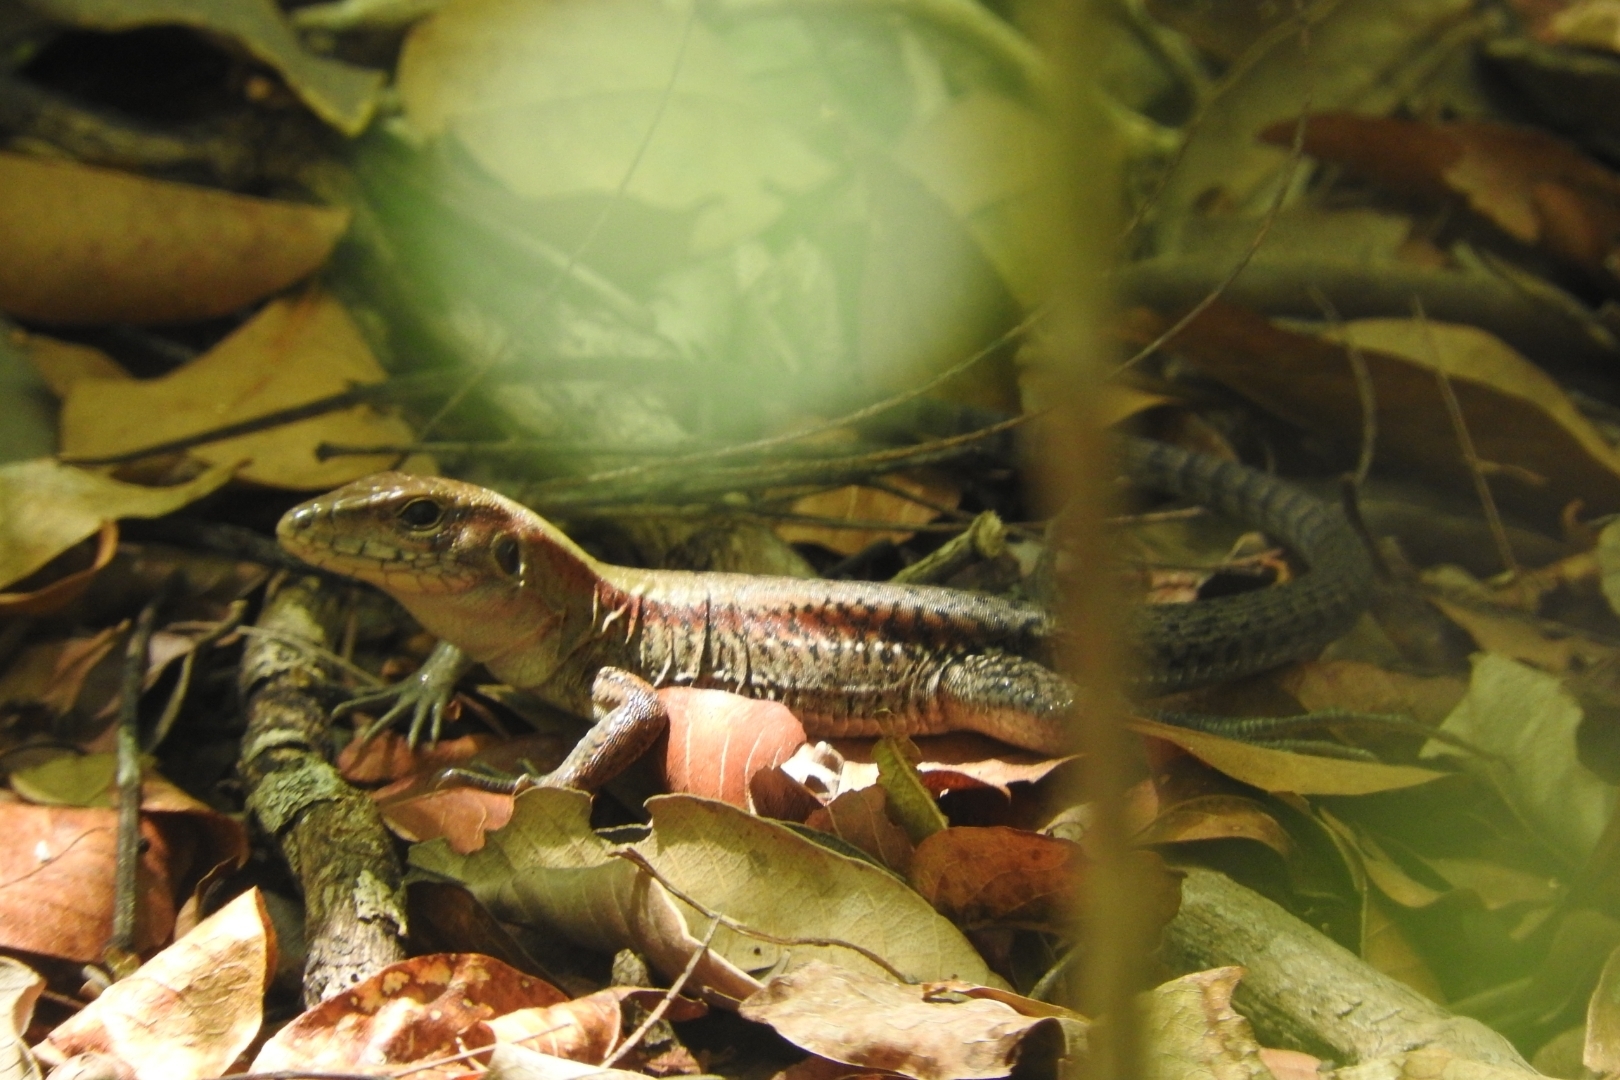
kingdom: Animalia
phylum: Chordata
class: Squamata
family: Teiidae
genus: Holcosus
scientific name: Holcosus gaigeae
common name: Rainbow ameiva
